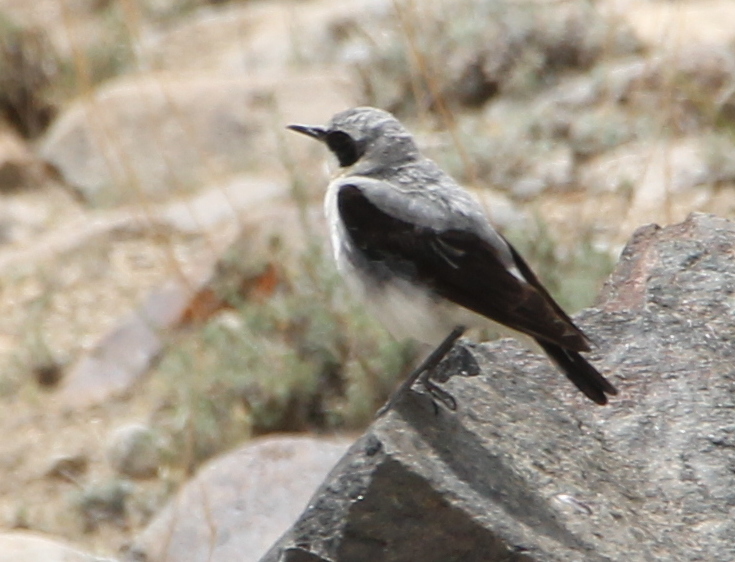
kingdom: Animalia
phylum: Chordata
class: Aves
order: Passeriformes
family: Muscicapidae
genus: Oenanthe
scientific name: Oenanthe oenanthe
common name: Northern wheatear
